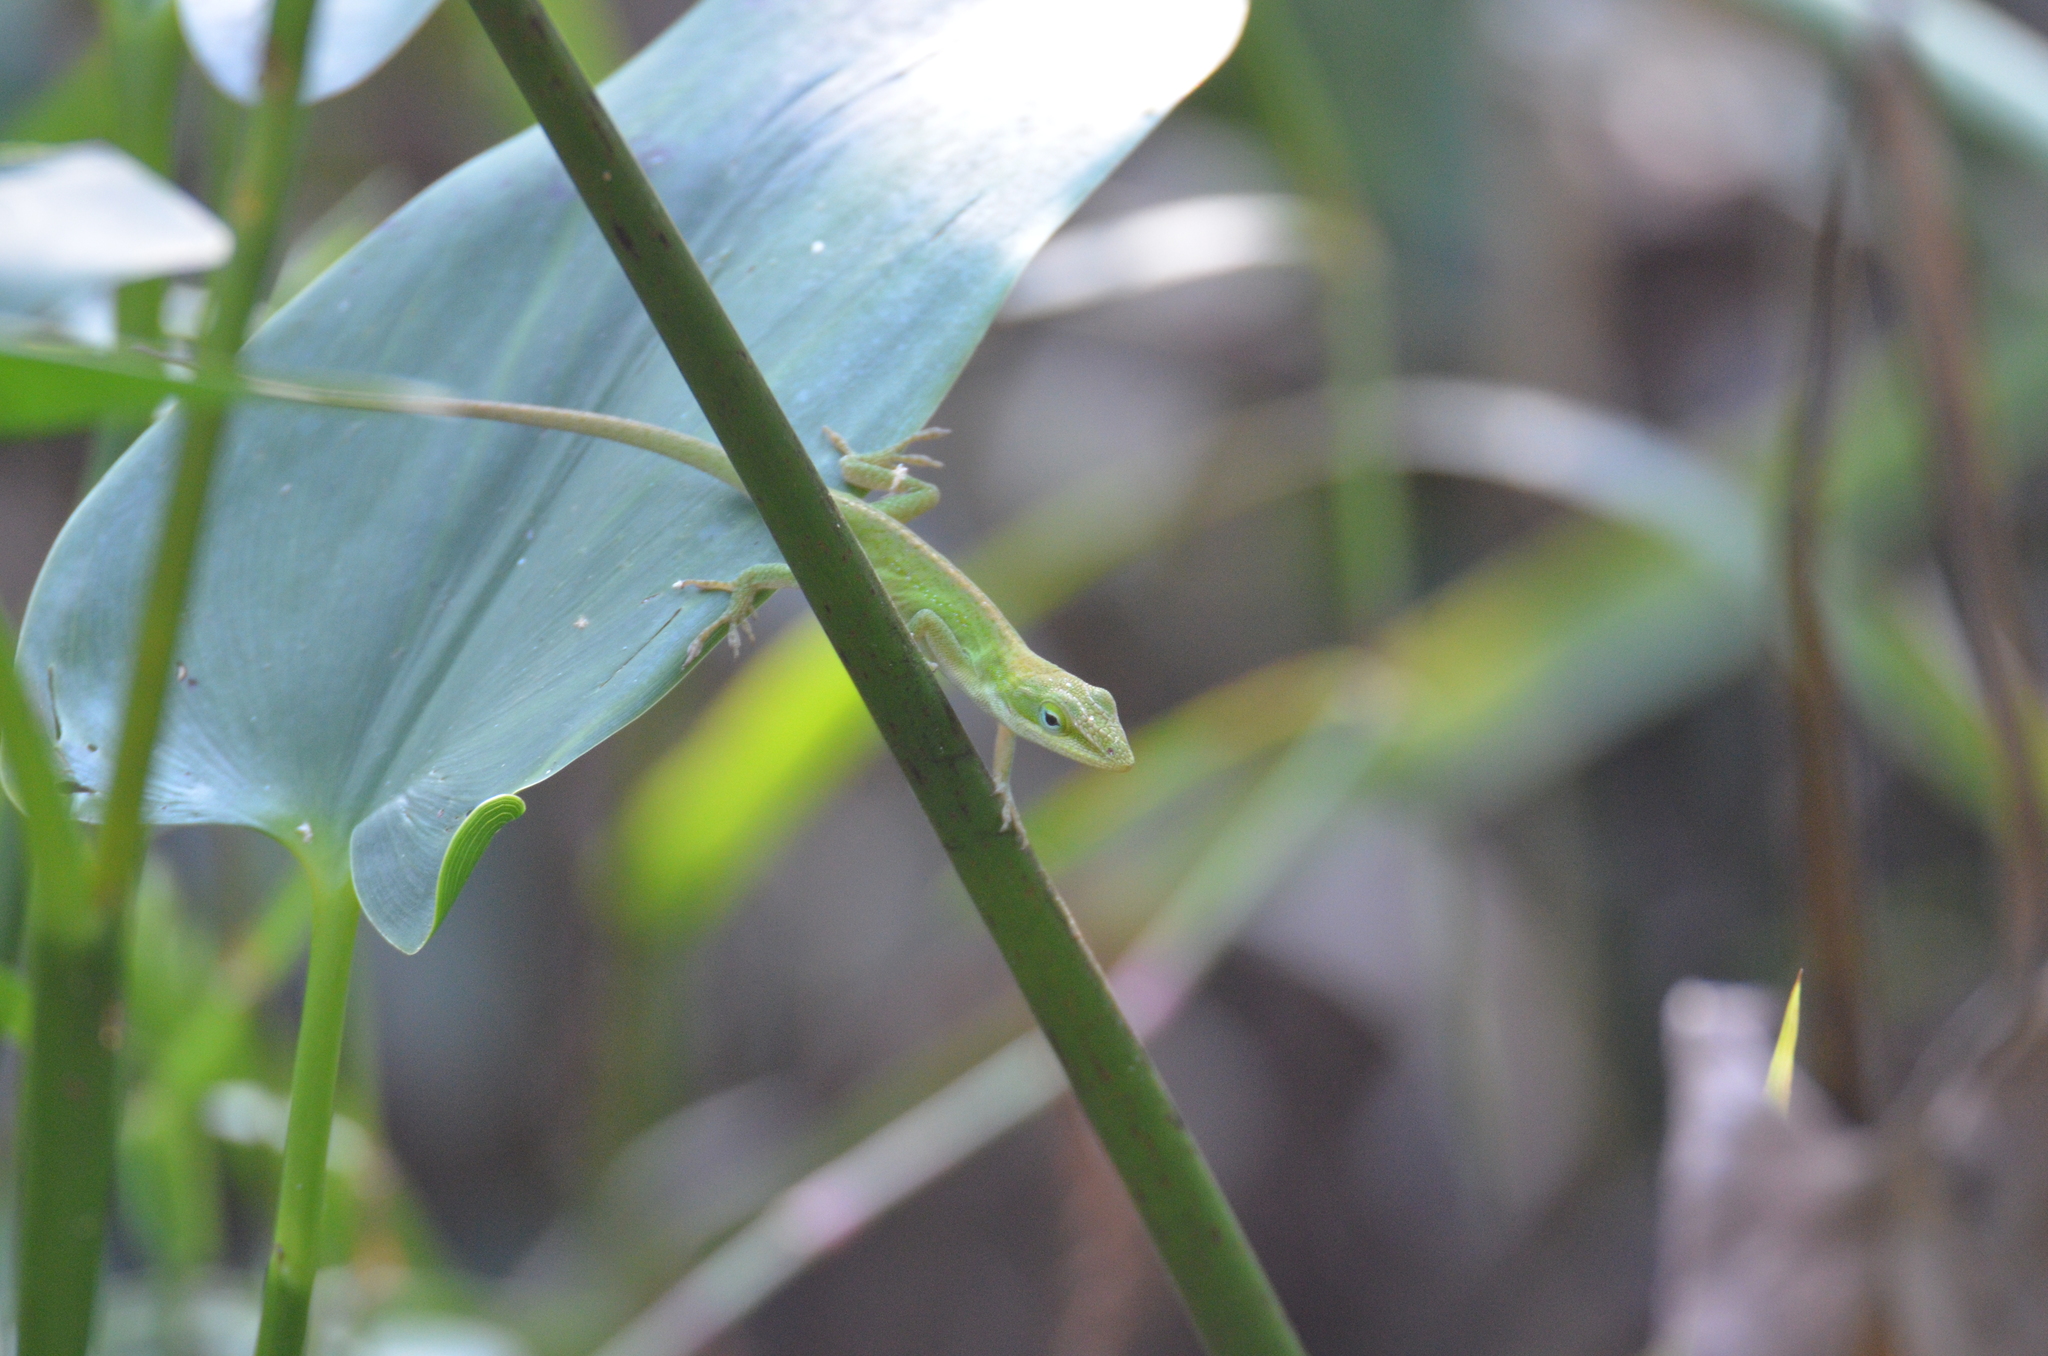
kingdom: Animalia
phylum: Chordata
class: Squamata
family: Dactyloidae
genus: Anolis
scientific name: Anolis carolinensis
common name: Green anole
